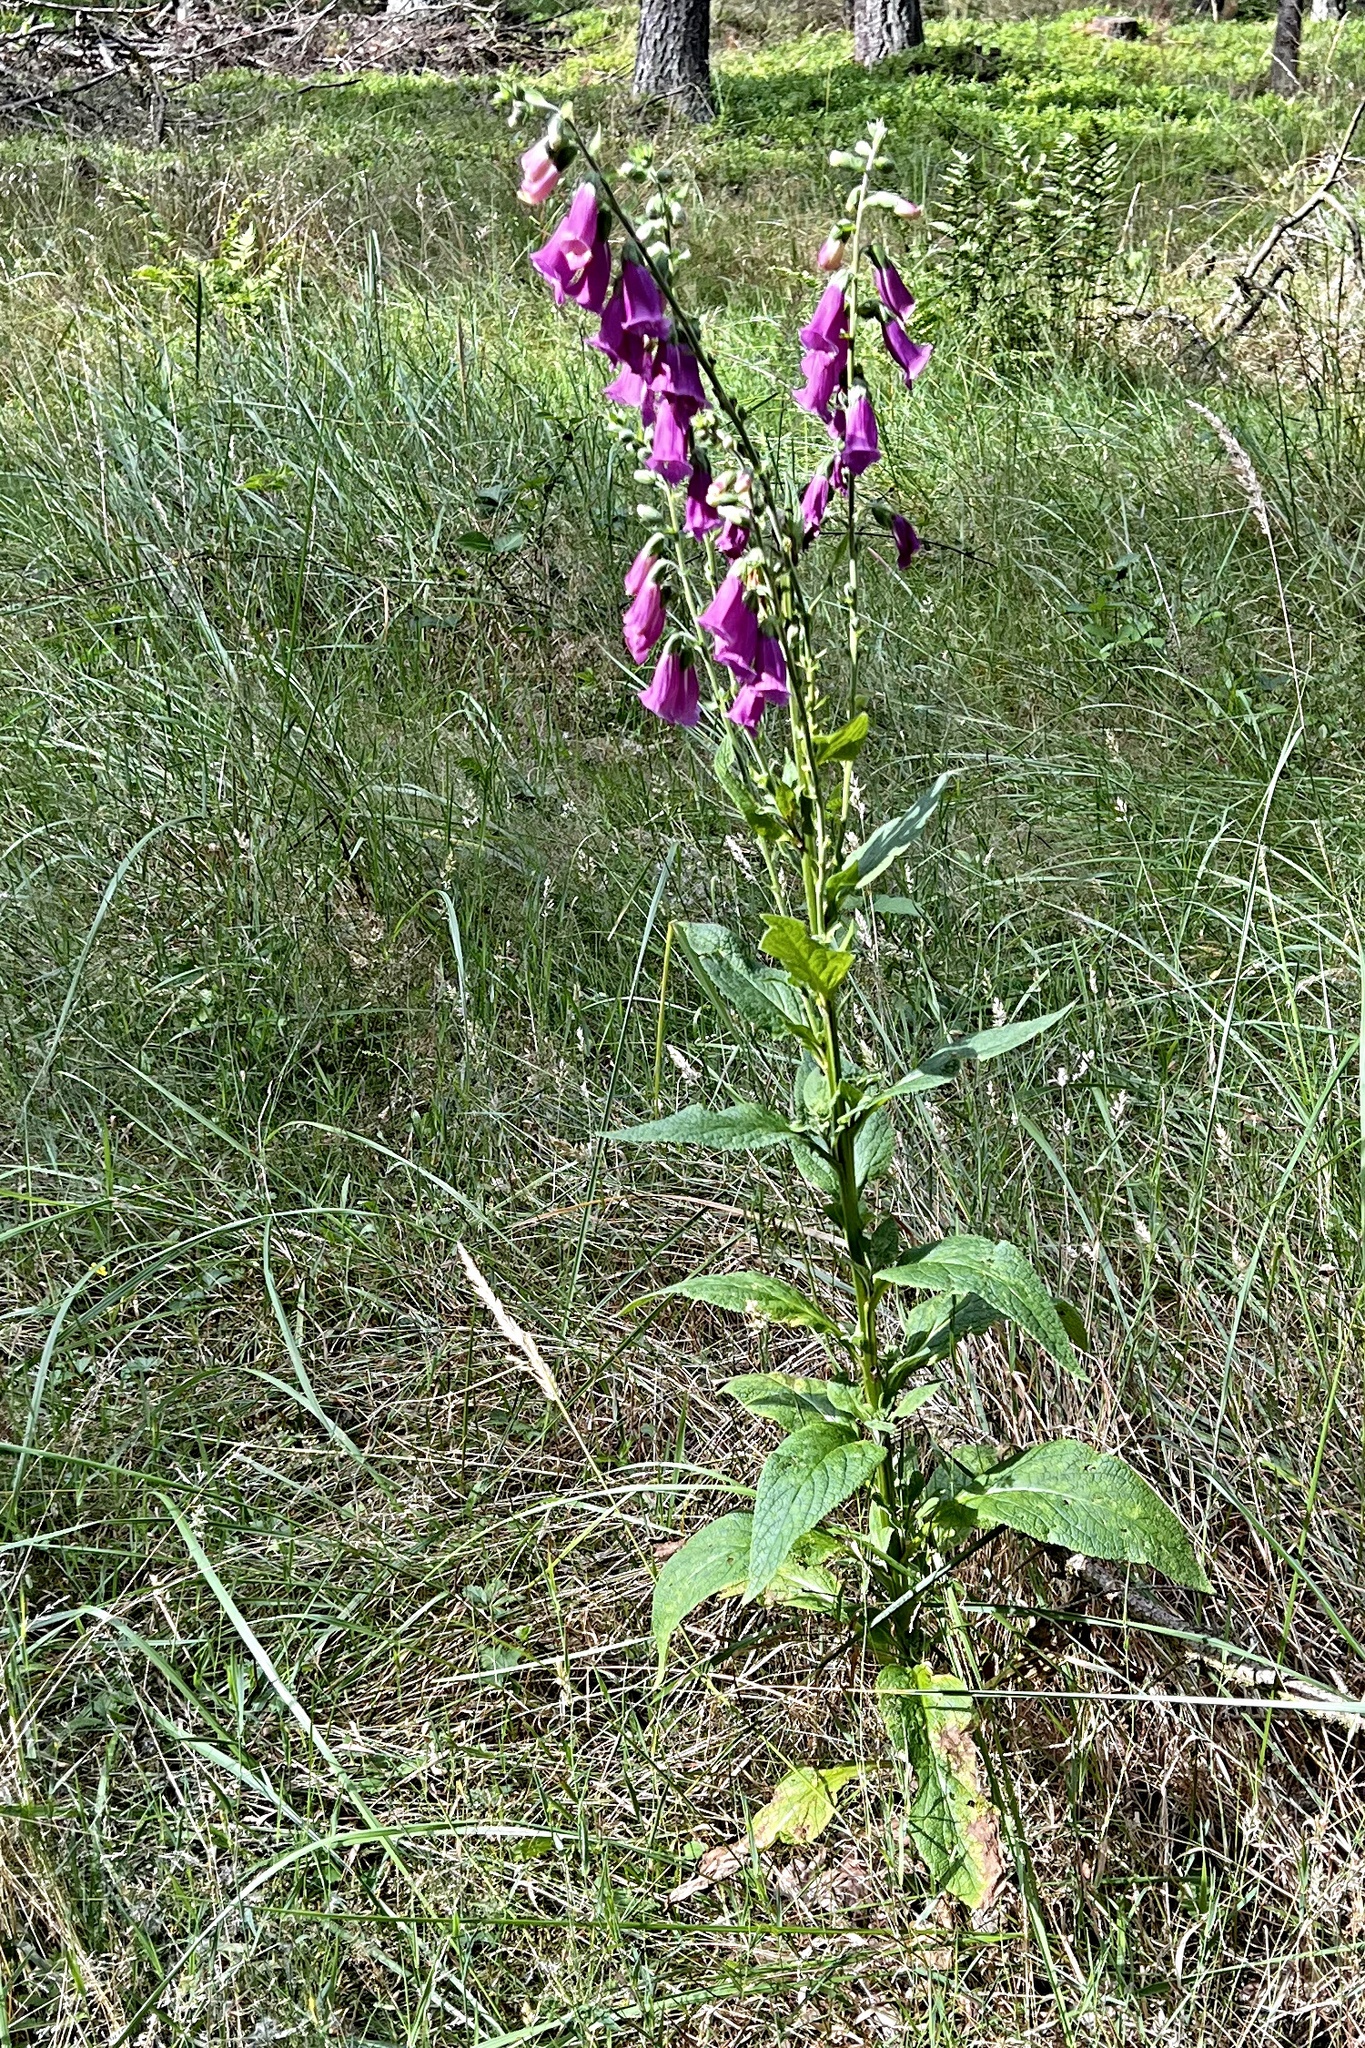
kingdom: Plantae
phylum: Tracheophyta
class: Magnoliopsida
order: Lamiales
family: Plantaginaceae
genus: Digitalis
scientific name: Digitalis purpurea
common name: Foxglove
